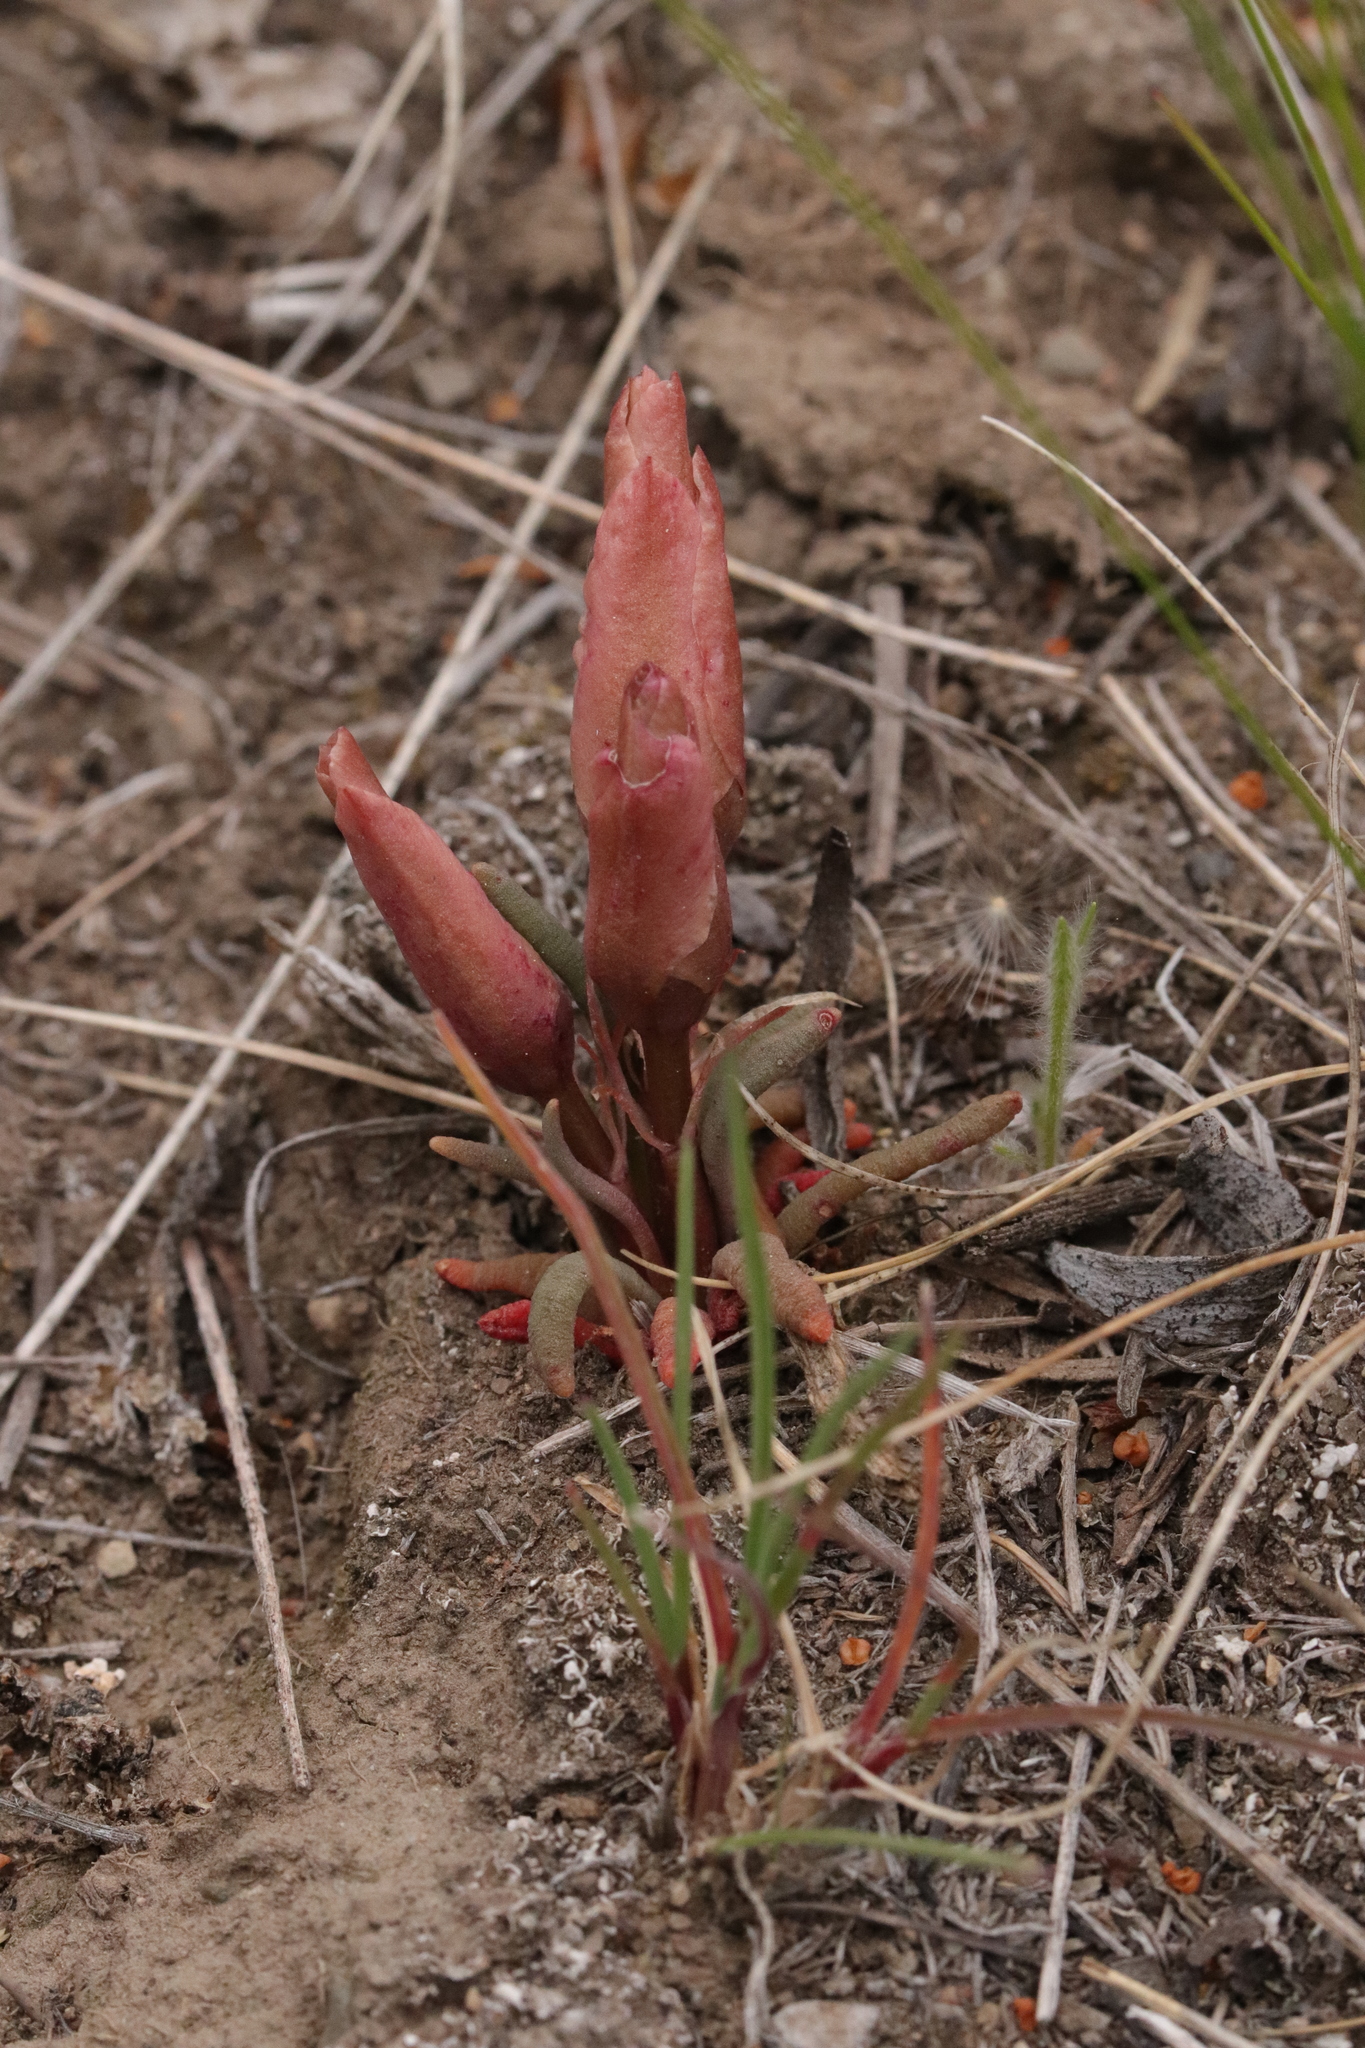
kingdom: Plantae
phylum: Tracheophyta
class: Magnoliopsida
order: Caryophyllales
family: Montiaceae
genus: Lewisia
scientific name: Lewisia rediviva
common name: Bitter-root
